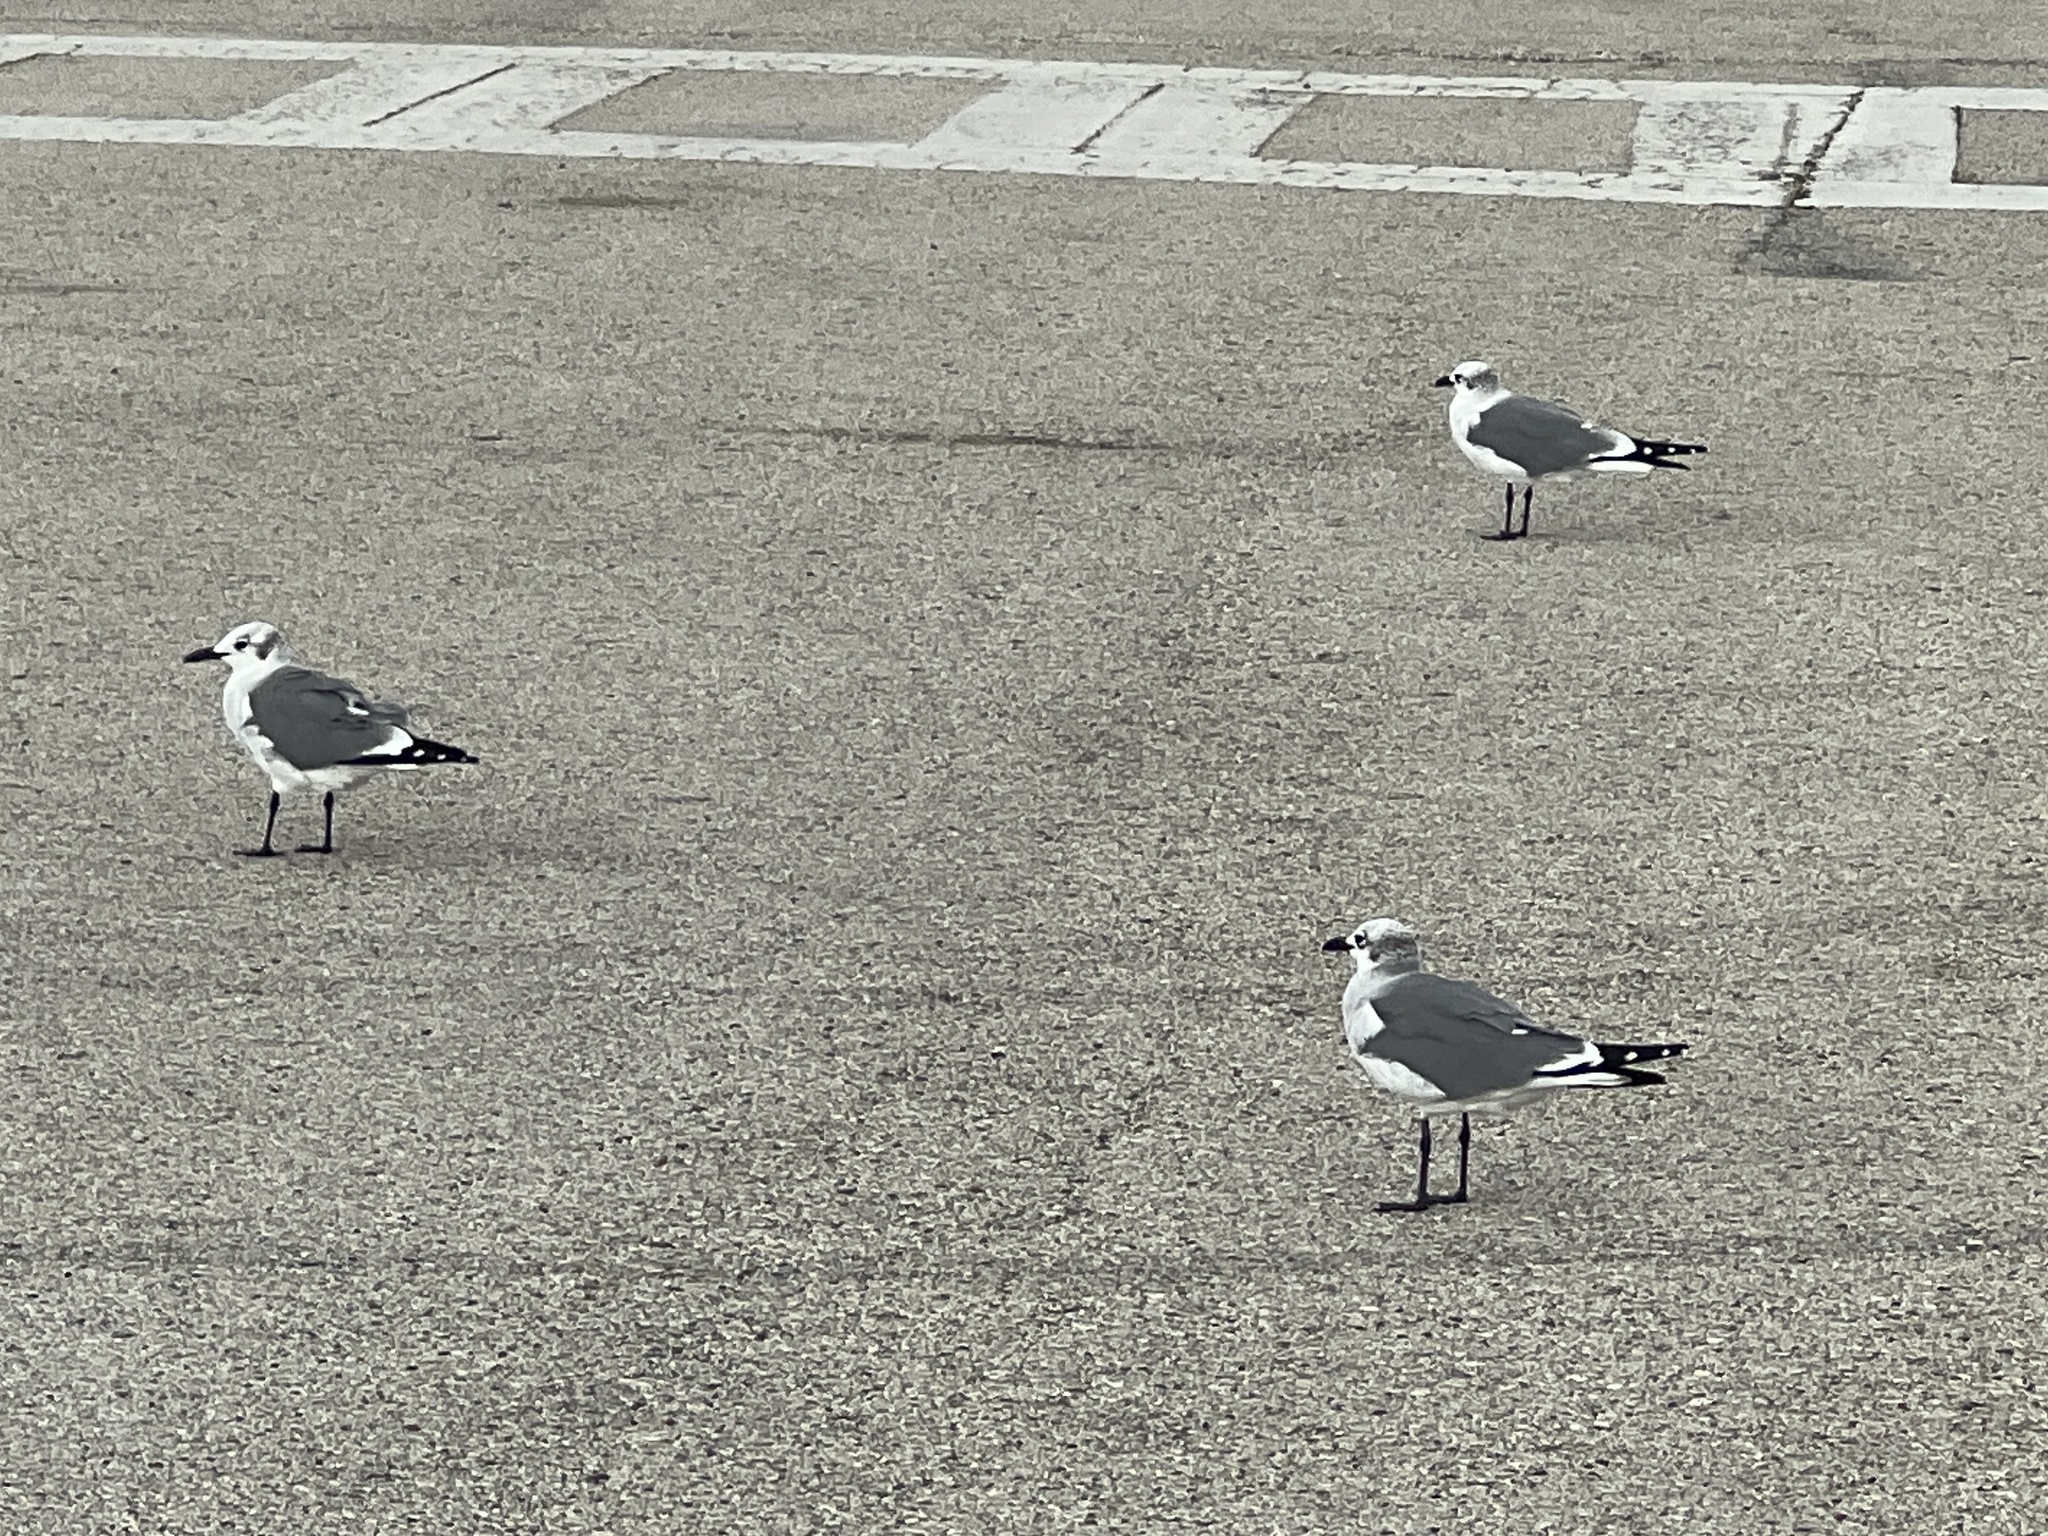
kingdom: Animalia
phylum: Chordata
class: Aves
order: Charadriiformes
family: Laridae
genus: Leucophaeus
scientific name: Leucophaeus atricilla
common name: Laughing gull
